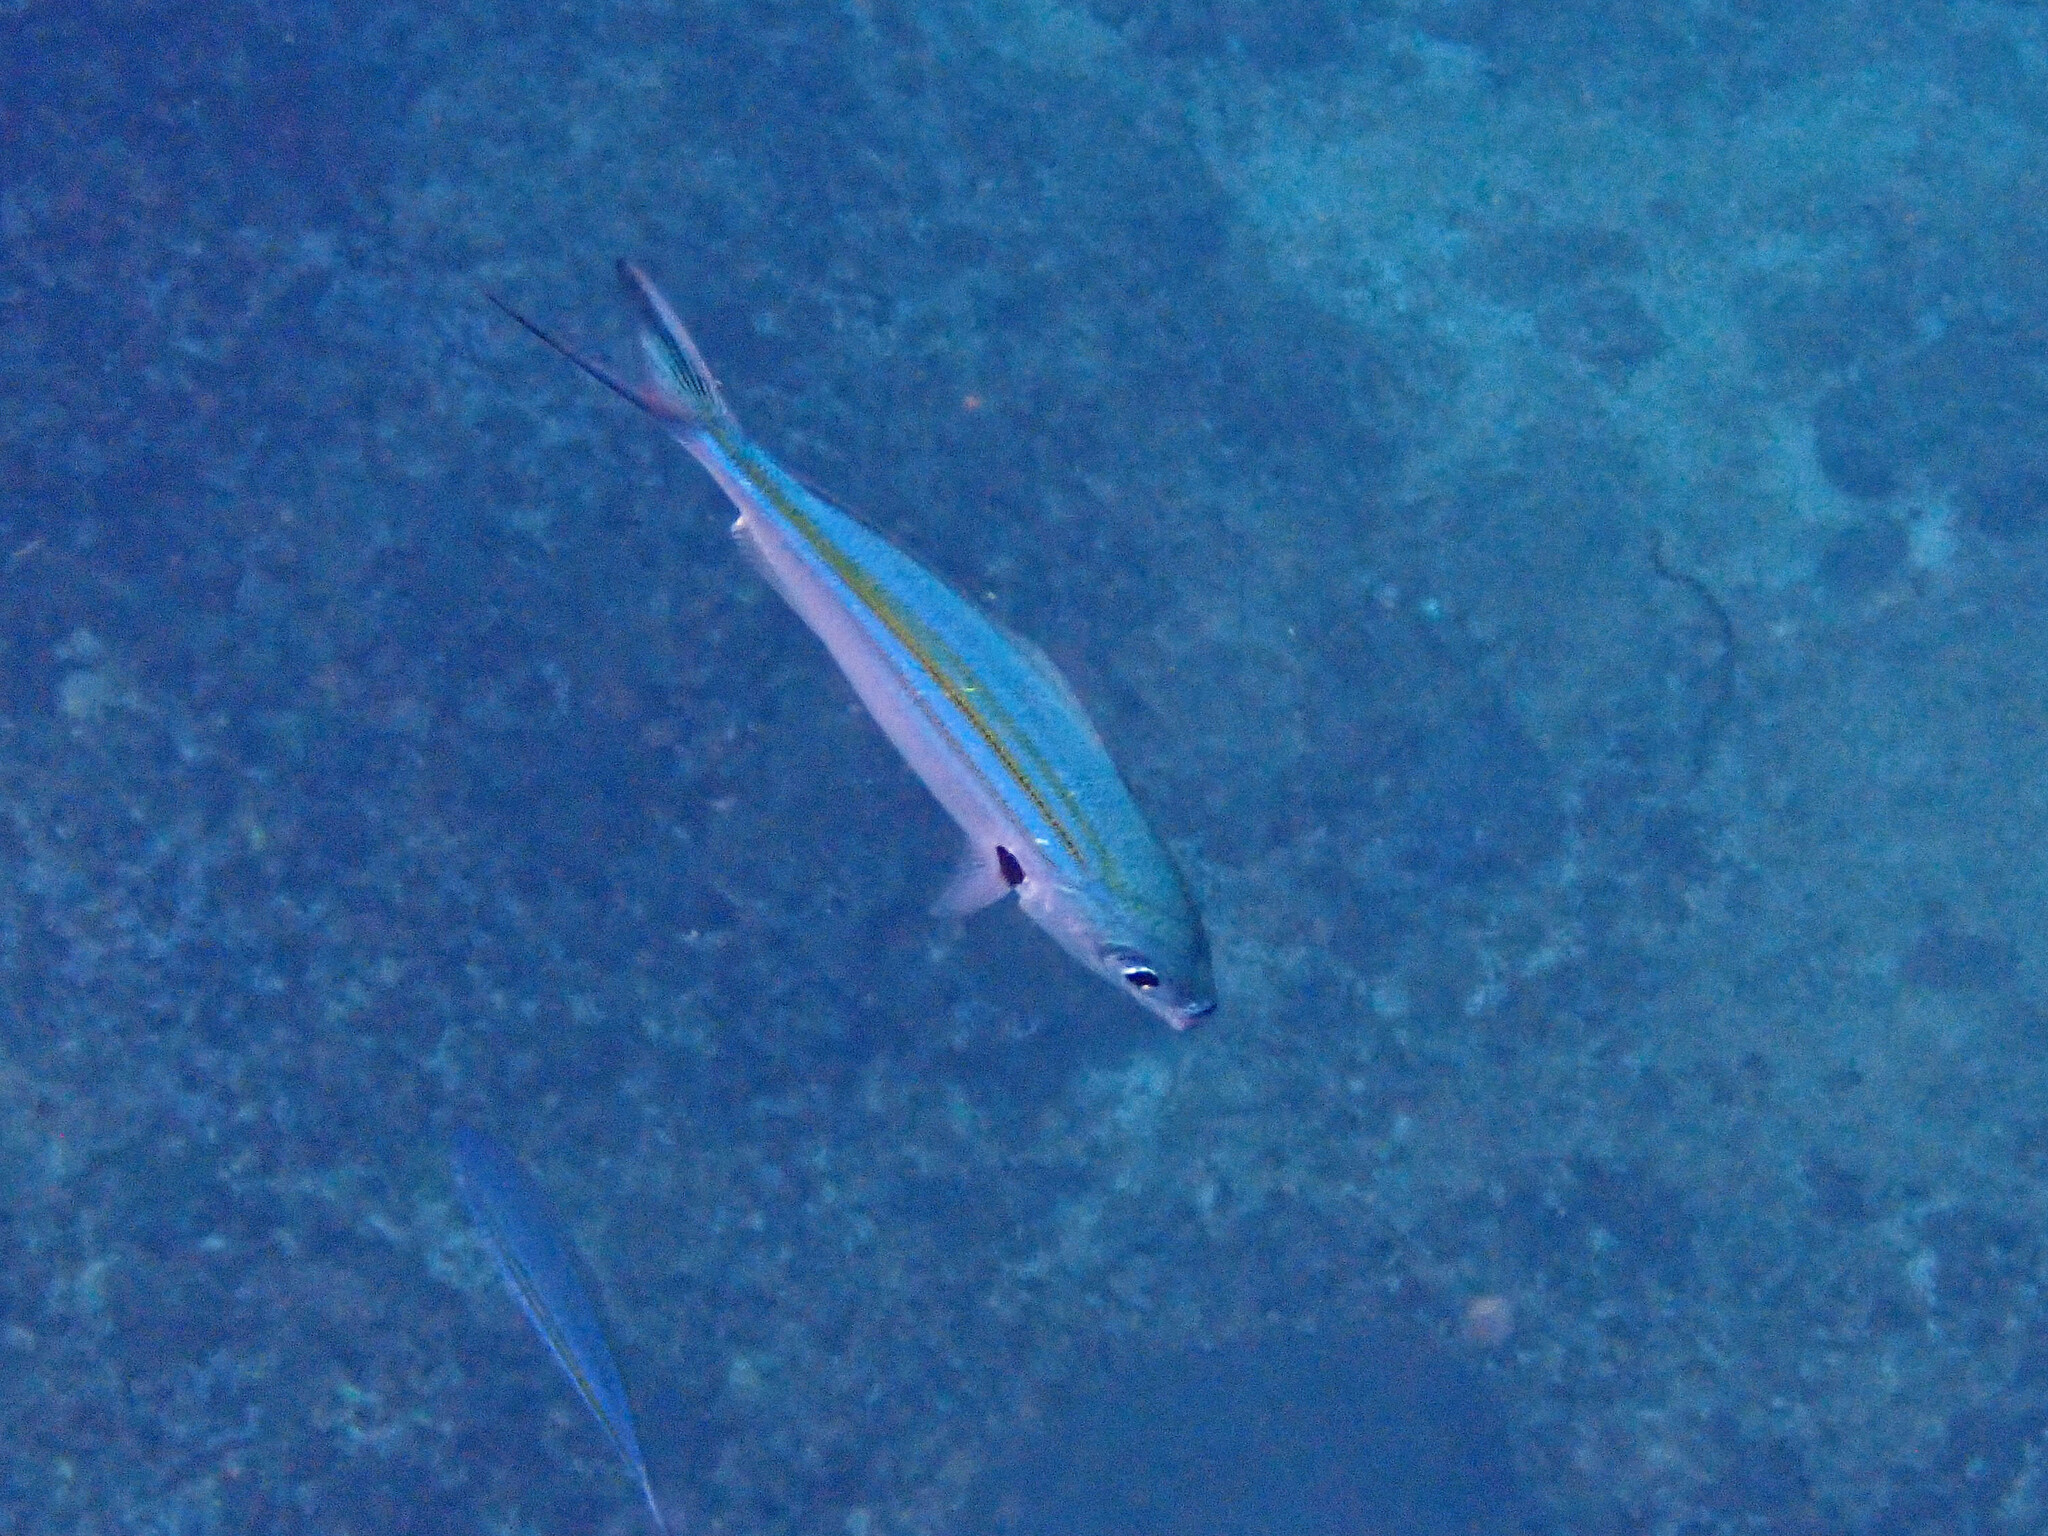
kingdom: Animalia
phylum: Chordata
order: Perciformes
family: Caesionidae
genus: Caesio
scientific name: Caesio caerulaurea
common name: Blue and gold fusilier
